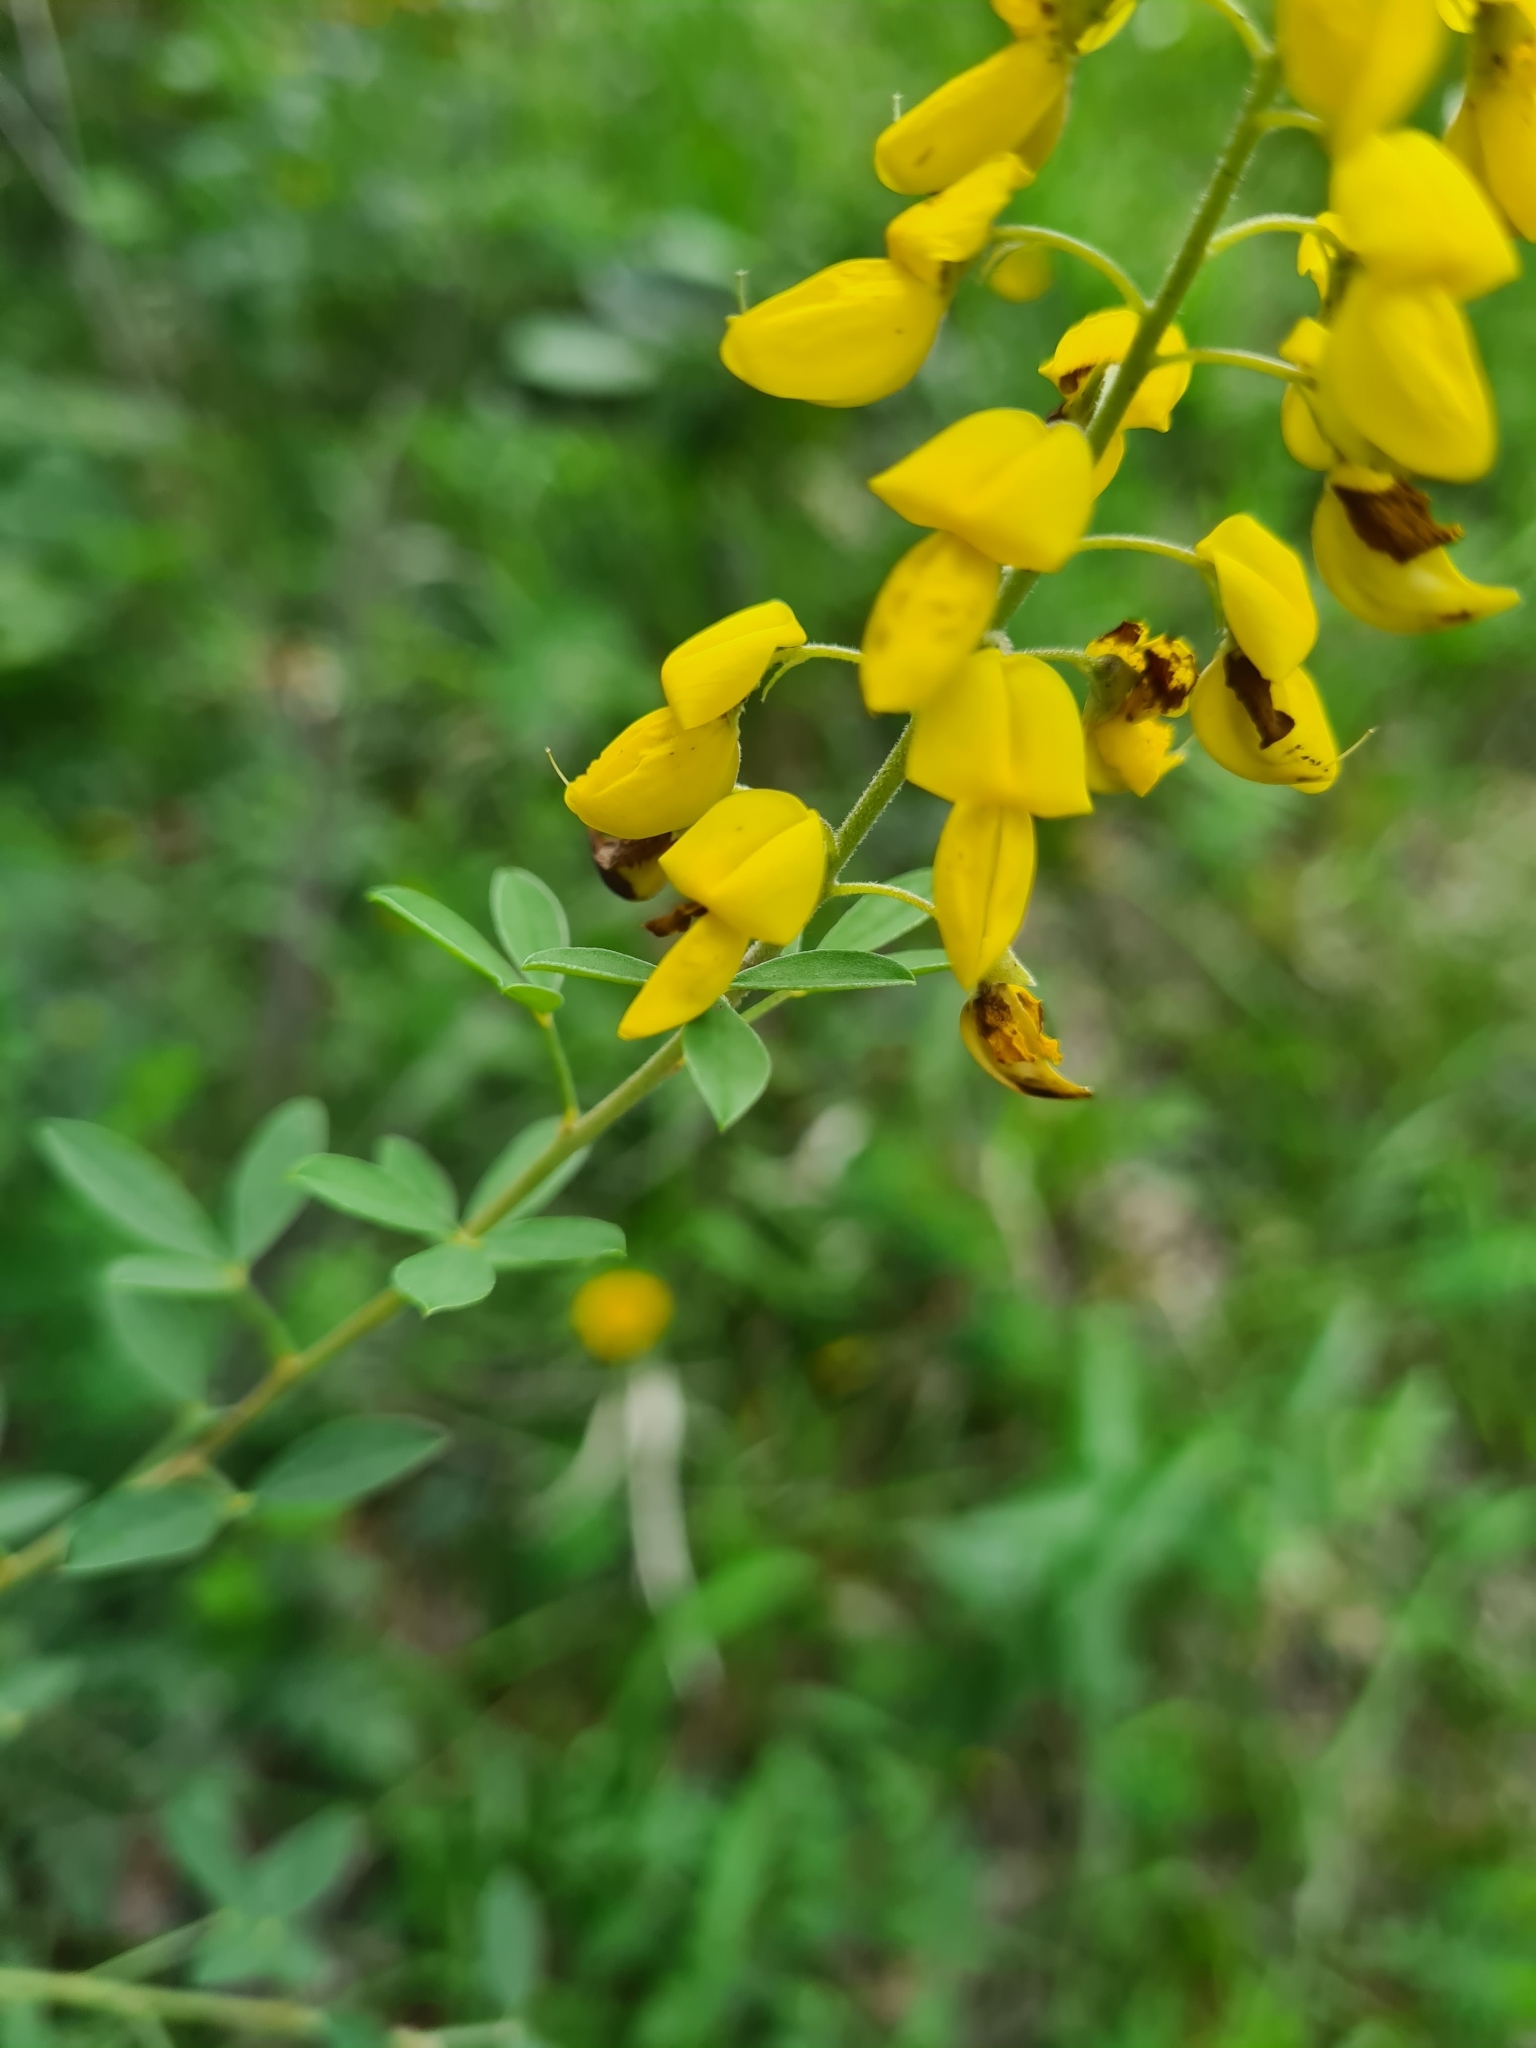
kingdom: Plantae
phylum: Tracheophyta
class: Magnoliopsida
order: Fabales
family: Fabaceae
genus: Cytisus
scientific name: Cytisus nigricans
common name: Black broom
